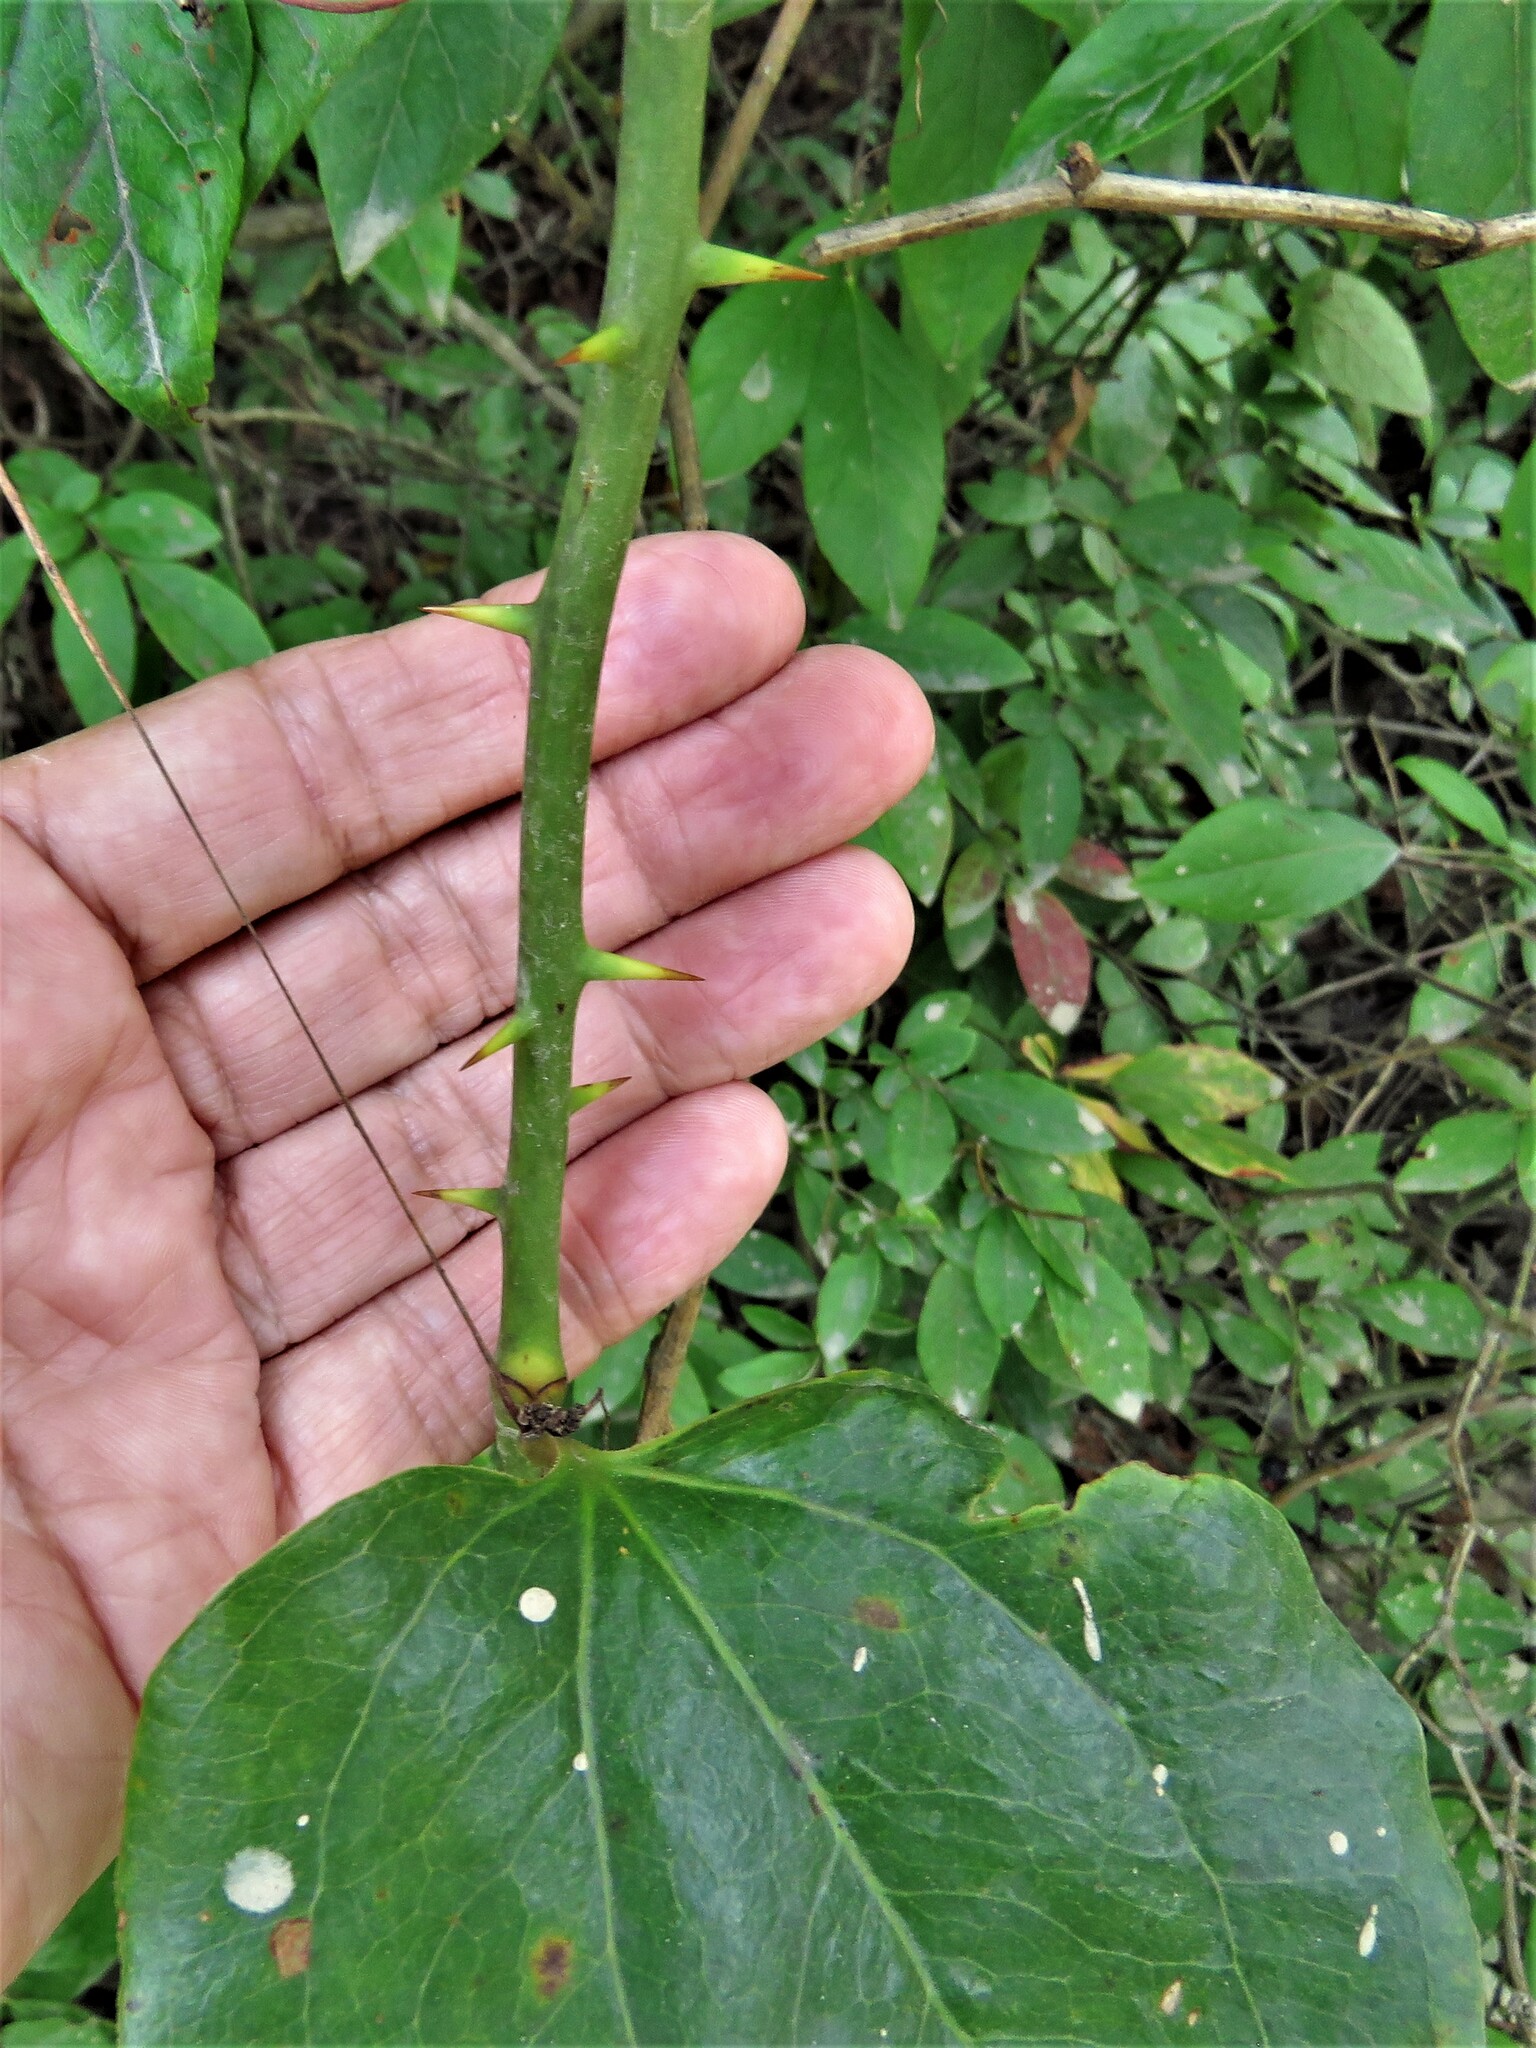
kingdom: Plantae
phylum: Tracheophyta
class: Liliopsida
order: Liliales
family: Smilacaceae
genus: Smilax
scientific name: Smilax rotundifolia
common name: Bullbriar
